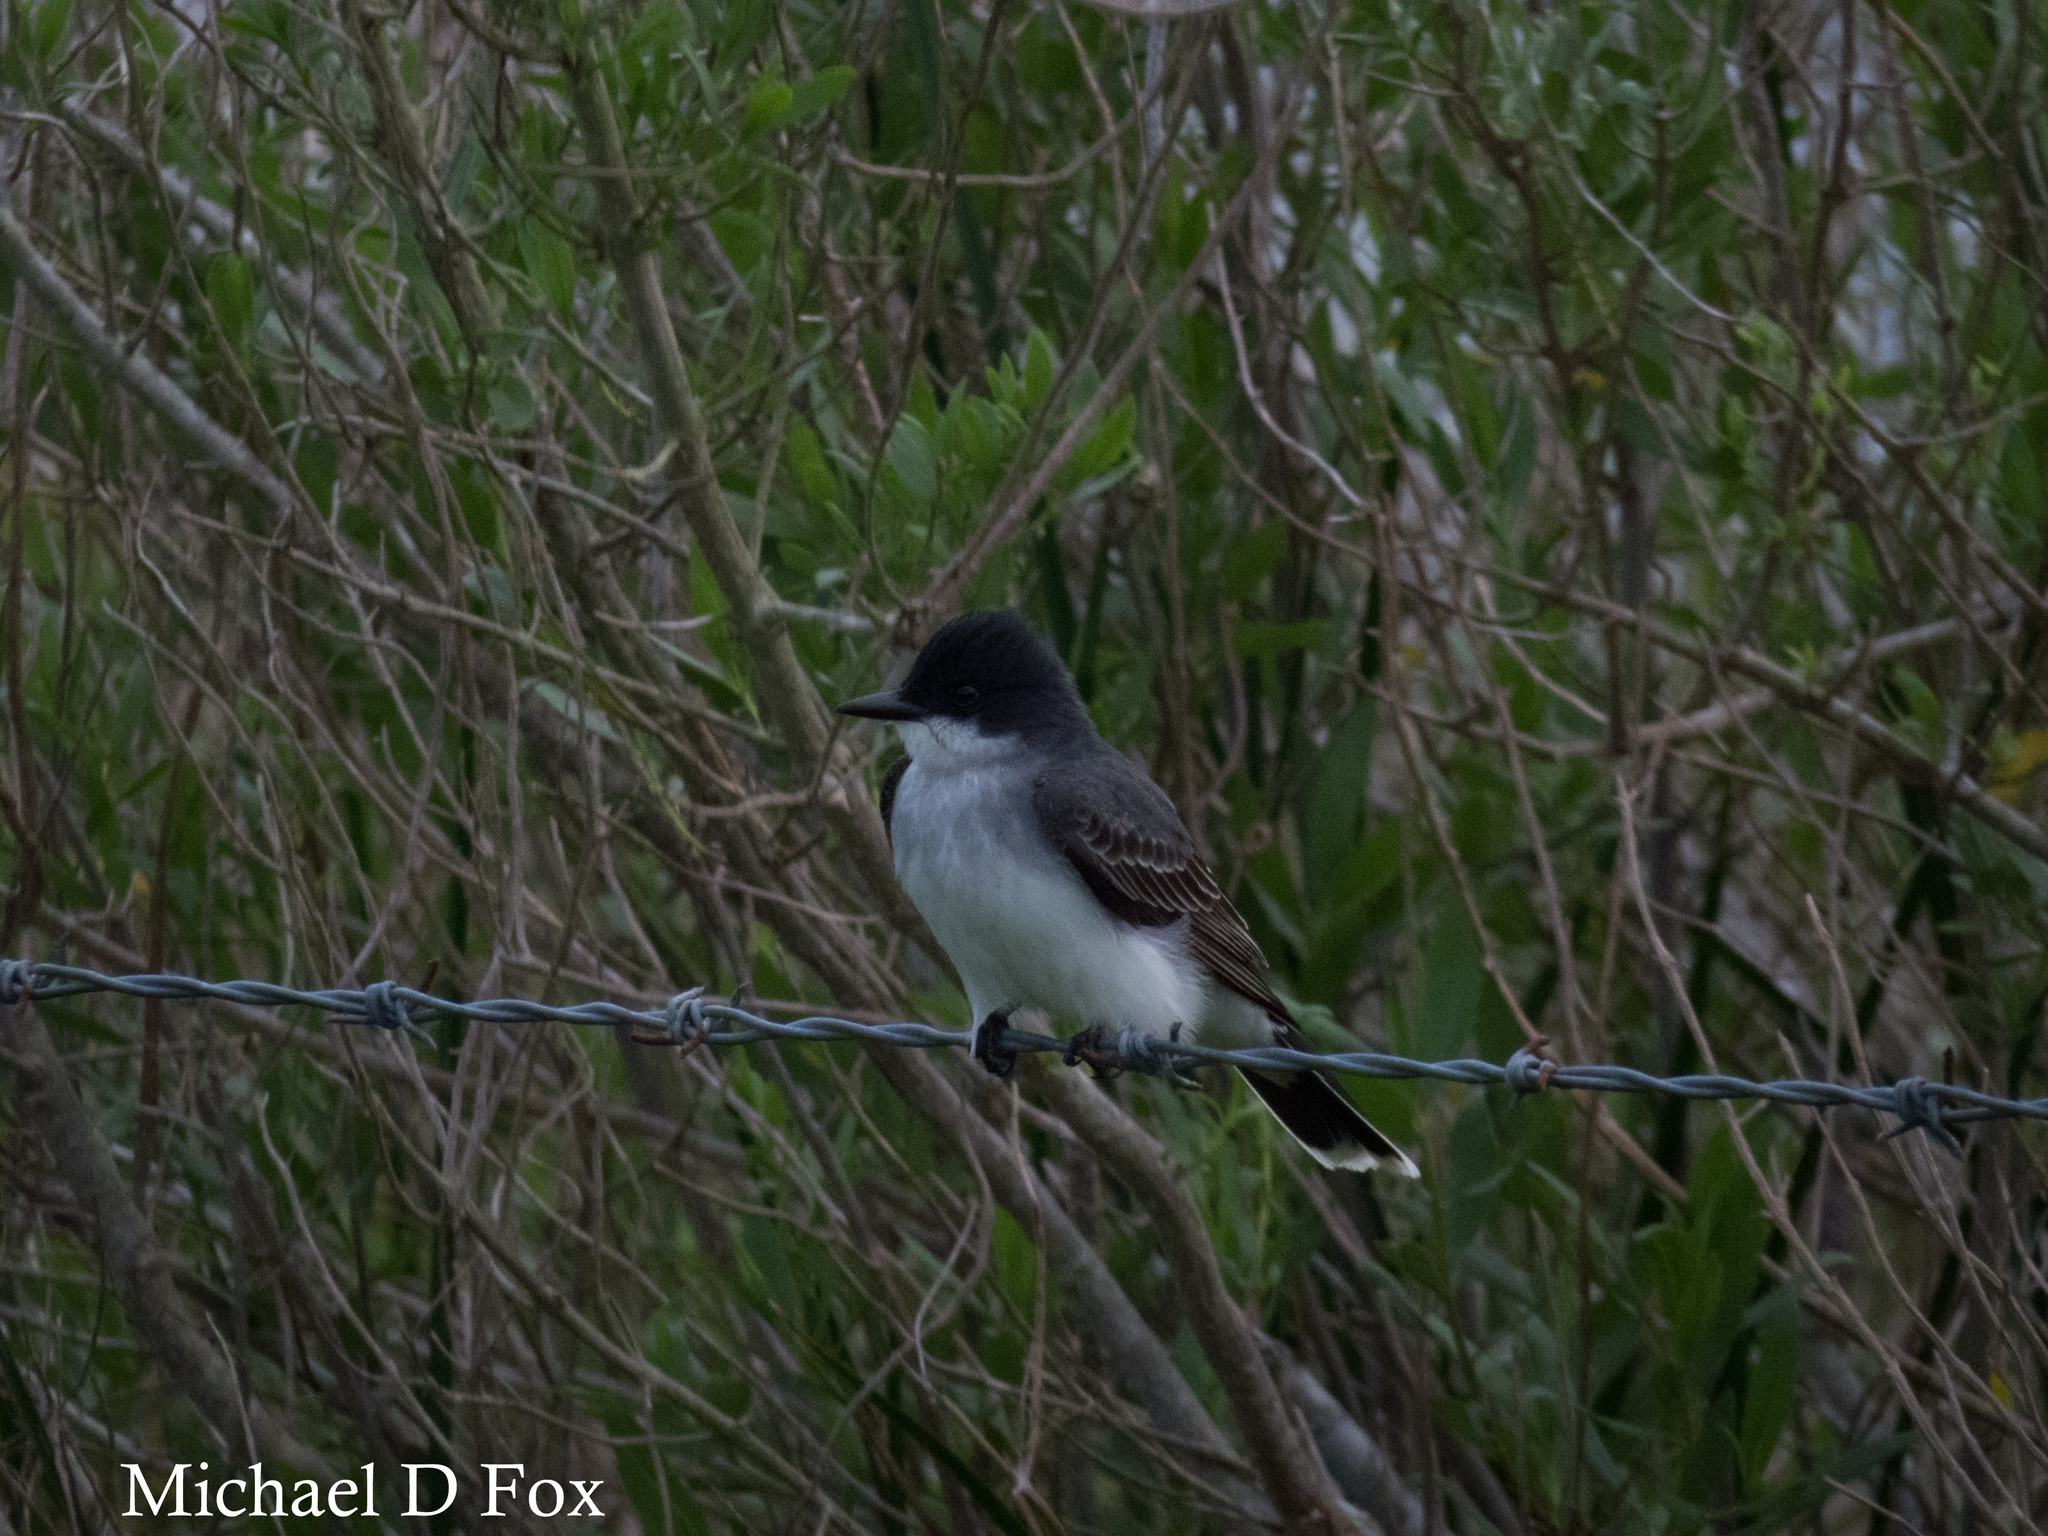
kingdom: Animalia
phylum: Chordata
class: Aves
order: Passeriformes
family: Tyrannidae
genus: Tyrannus
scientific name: Tyrannus tyrannus
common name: Eastern kingbird
